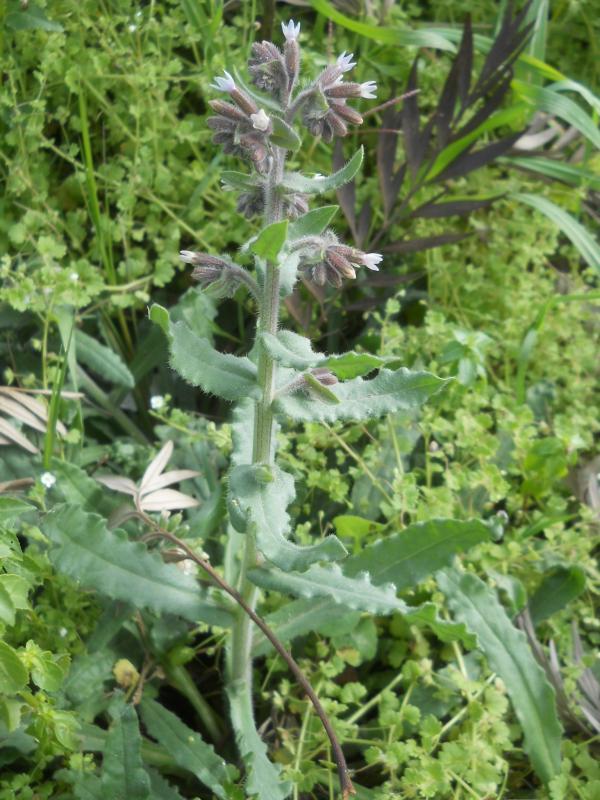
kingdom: Plantae
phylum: Tracheophyta
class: Magnoliopsida
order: Boraginales
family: Boraginaceae
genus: Anchusa
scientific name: Anchusa hybrida
